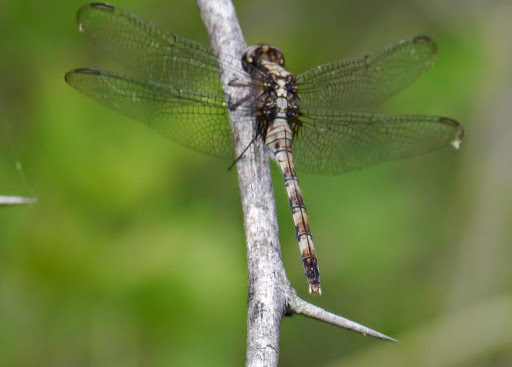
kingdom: Animalia
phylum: Arthropoda
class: Insecta
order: Odonata
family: Libellulidae
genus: Erythemis
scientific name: Erythemis plebeja
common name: Pin-tailed pondhawk
